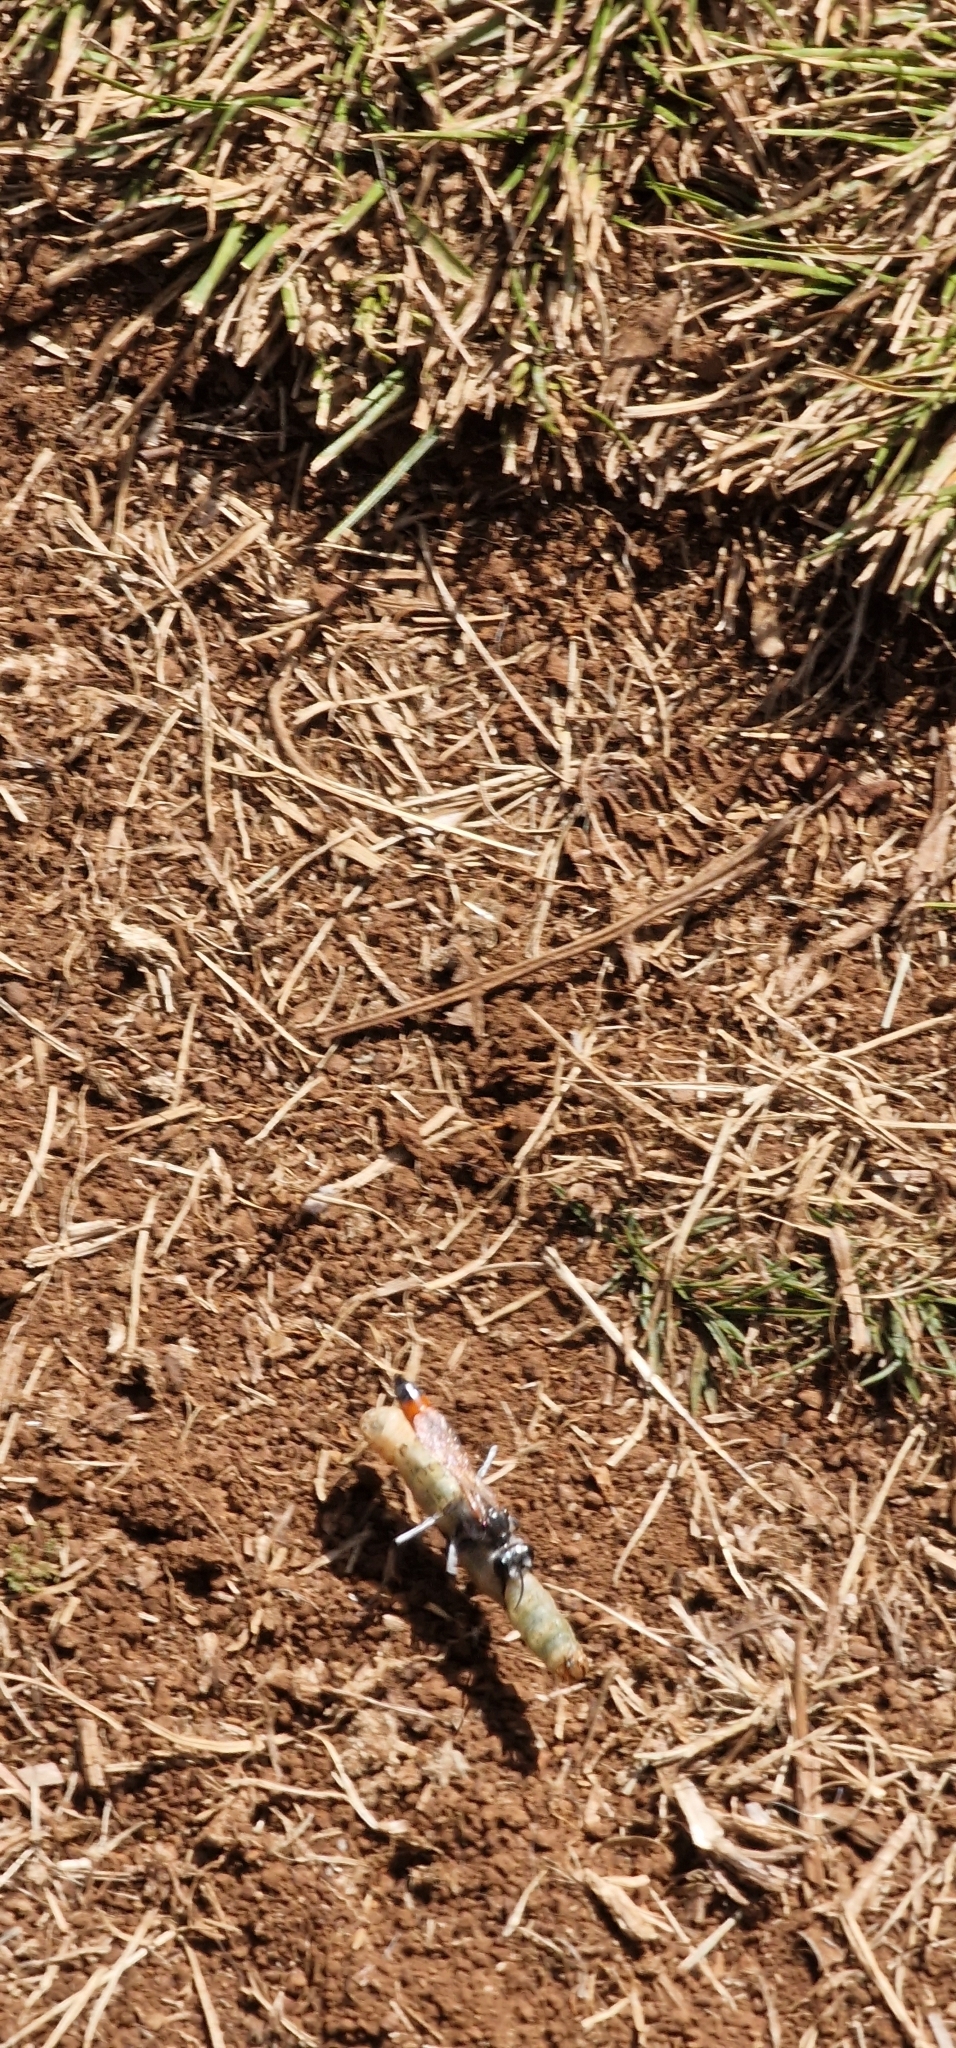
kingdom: Animalia
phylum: Arthropoda
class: Insecta
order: Hymenoptera
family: Sphecidae
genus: Podalonia
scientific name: Podalonia tydei
